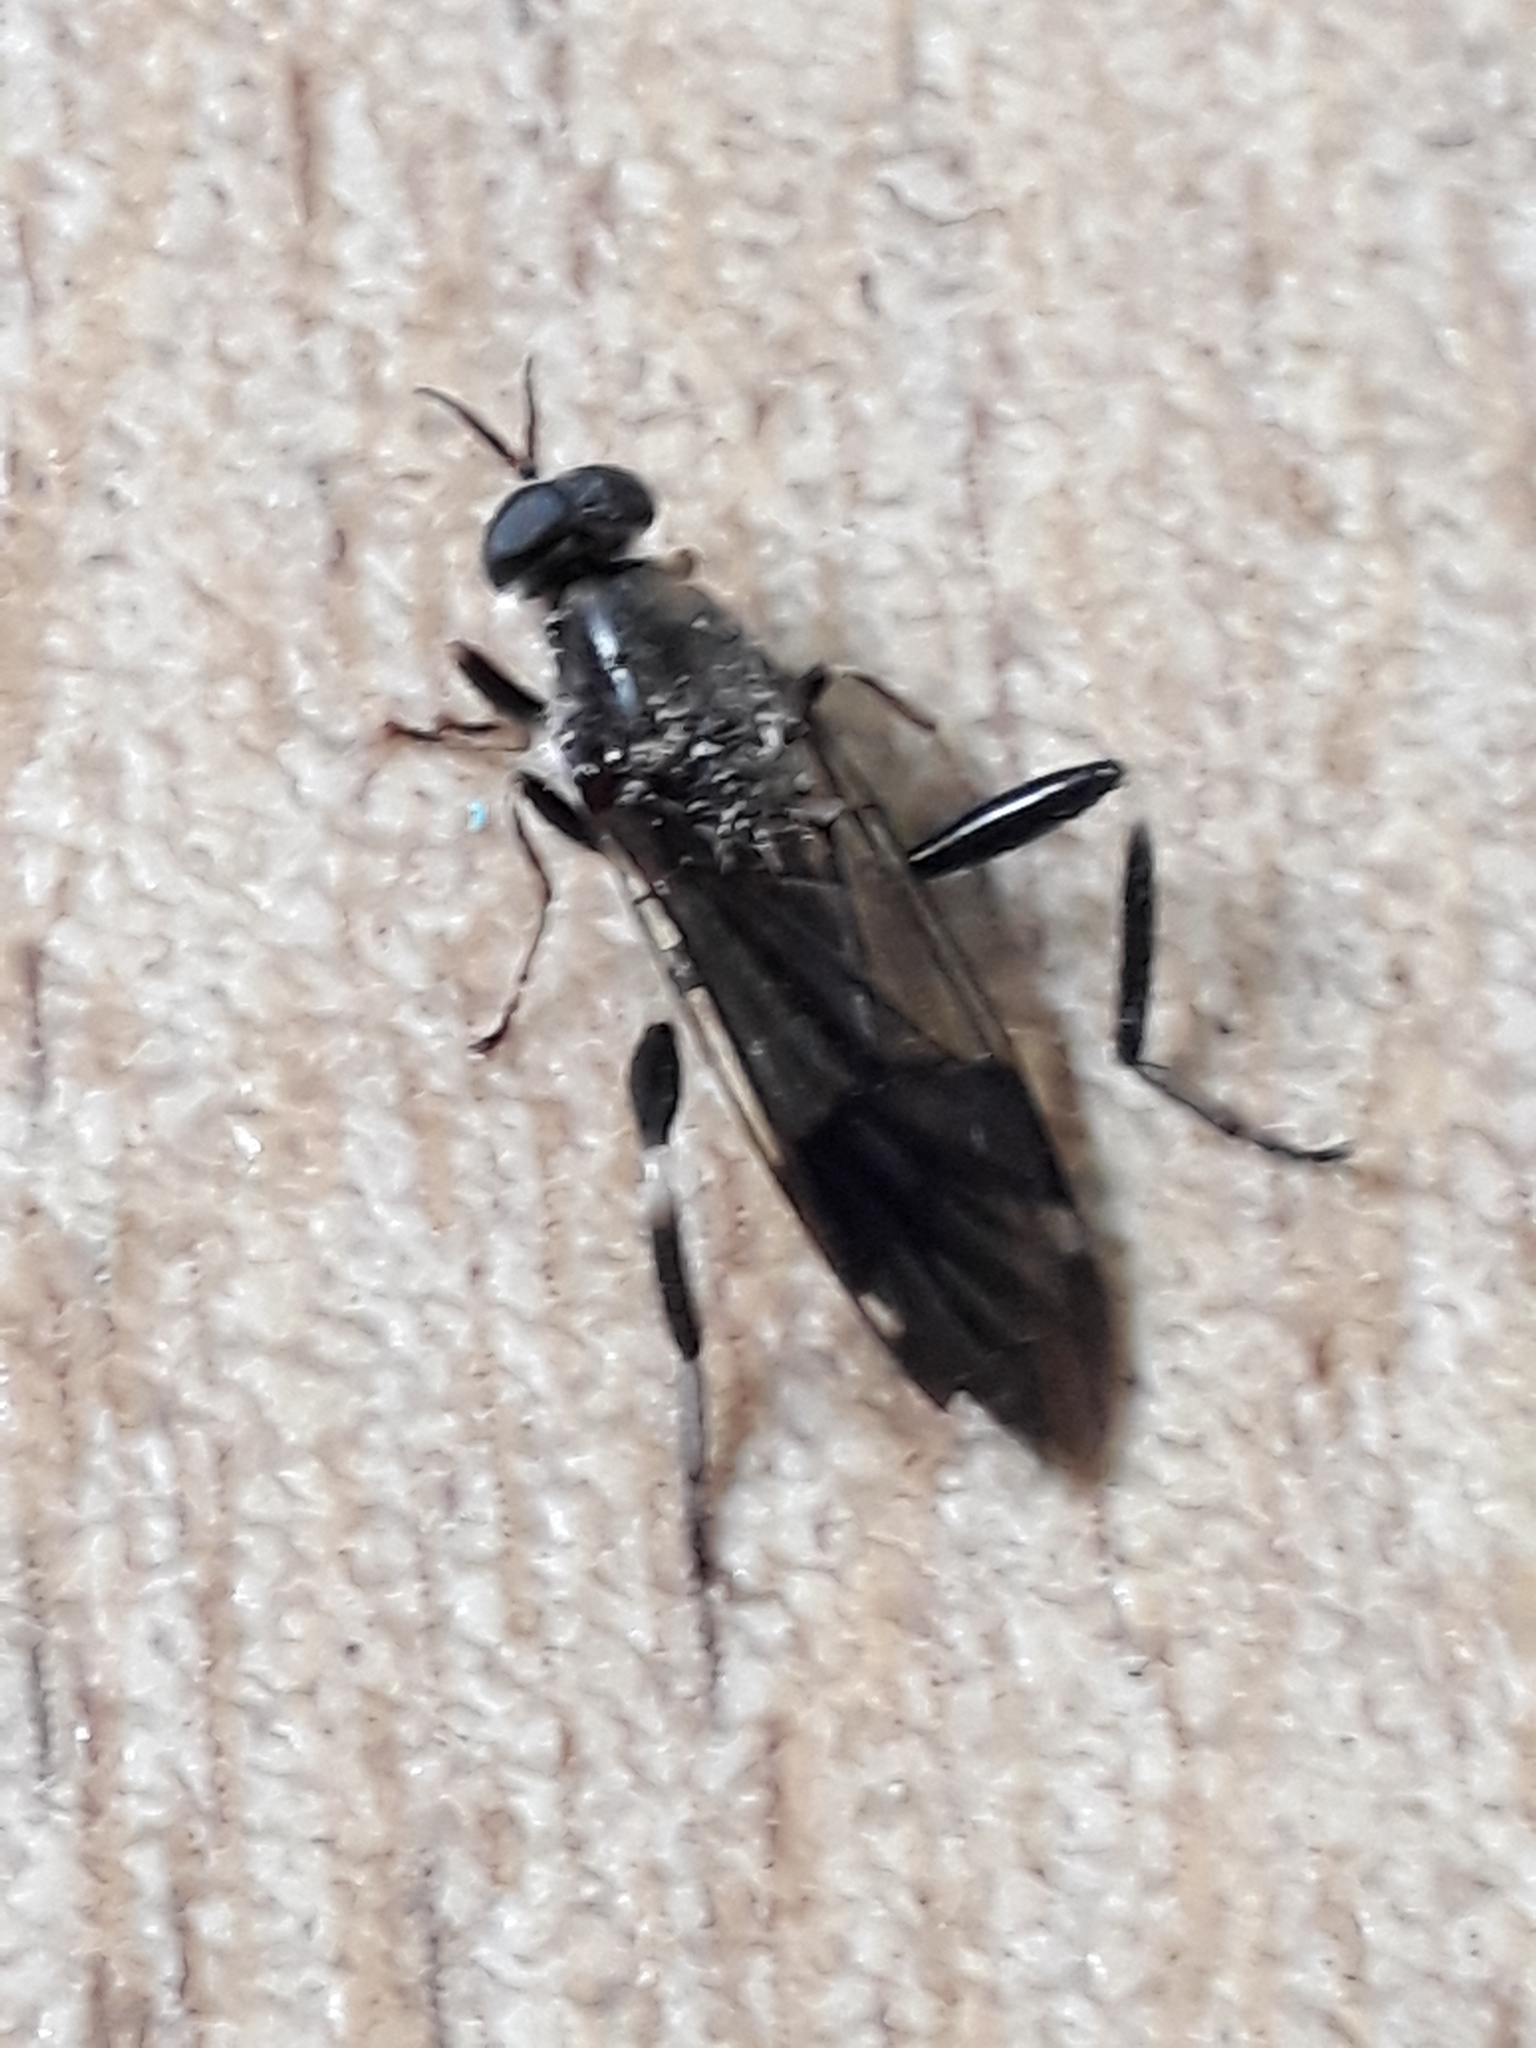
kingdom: Animalia
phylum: Arthropoda
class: Insecta
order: Diptera
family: Stratiomyidae
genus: Exaireta
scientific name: Exaireta spinigera
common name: Blue soldier fly
